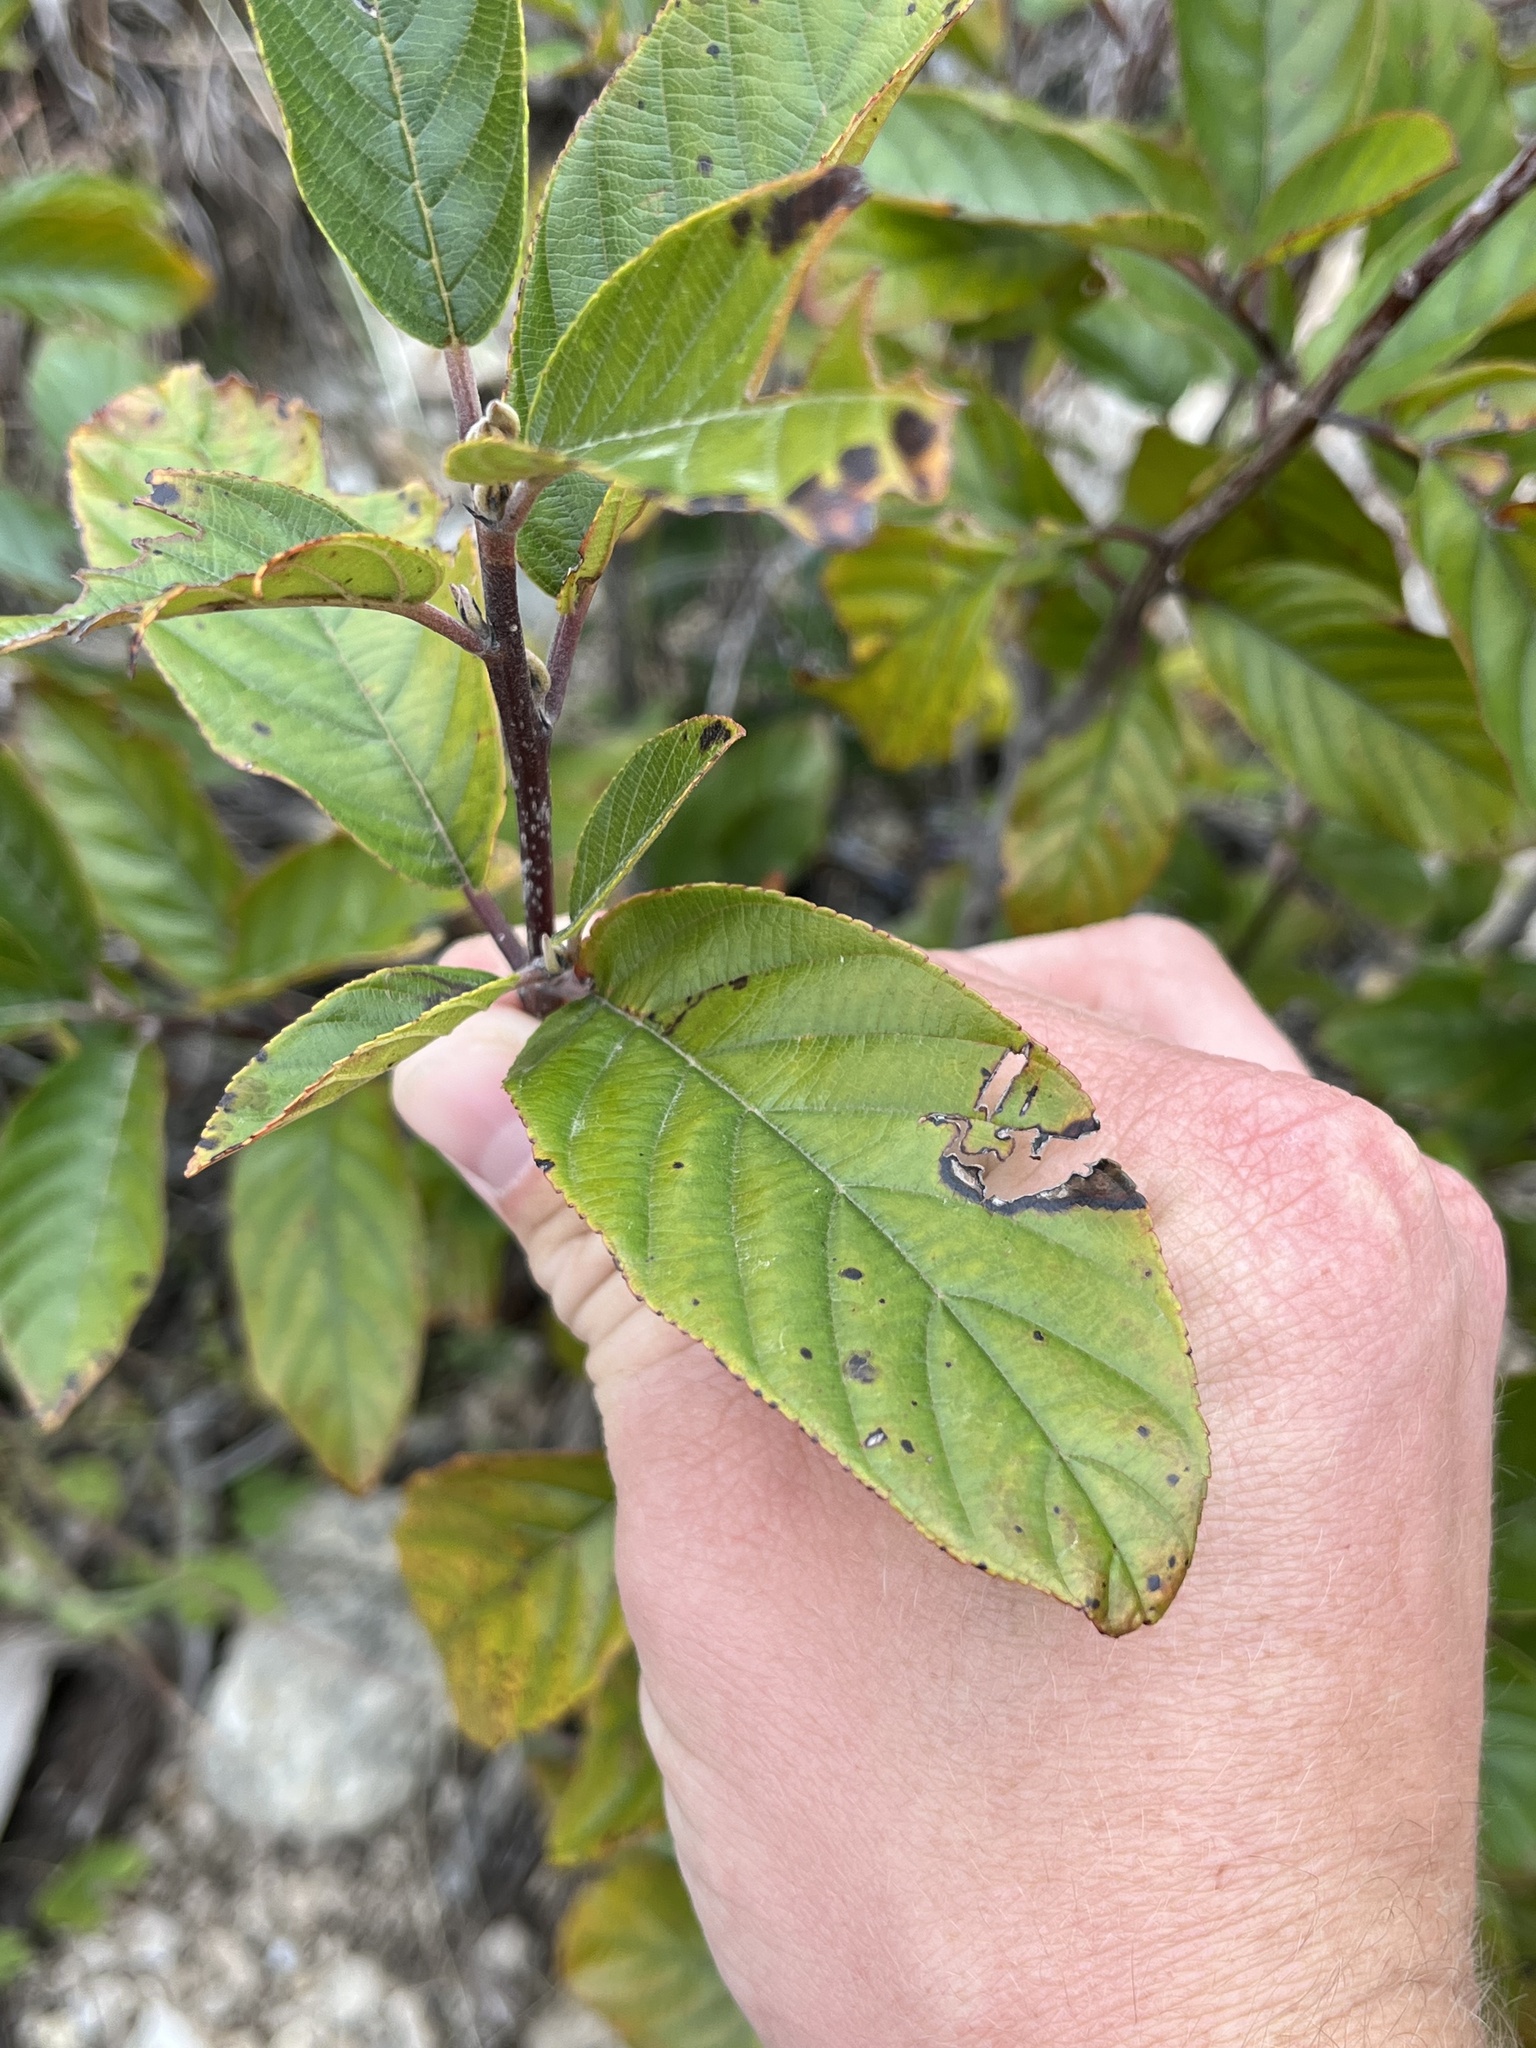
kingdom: Plantae
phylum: Tracheophyta
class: Magnoliopsida
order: Rosales
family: Rhamnaceae
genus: Frangula
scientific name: Frangula caroliniana
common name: Carolina buckthorn
